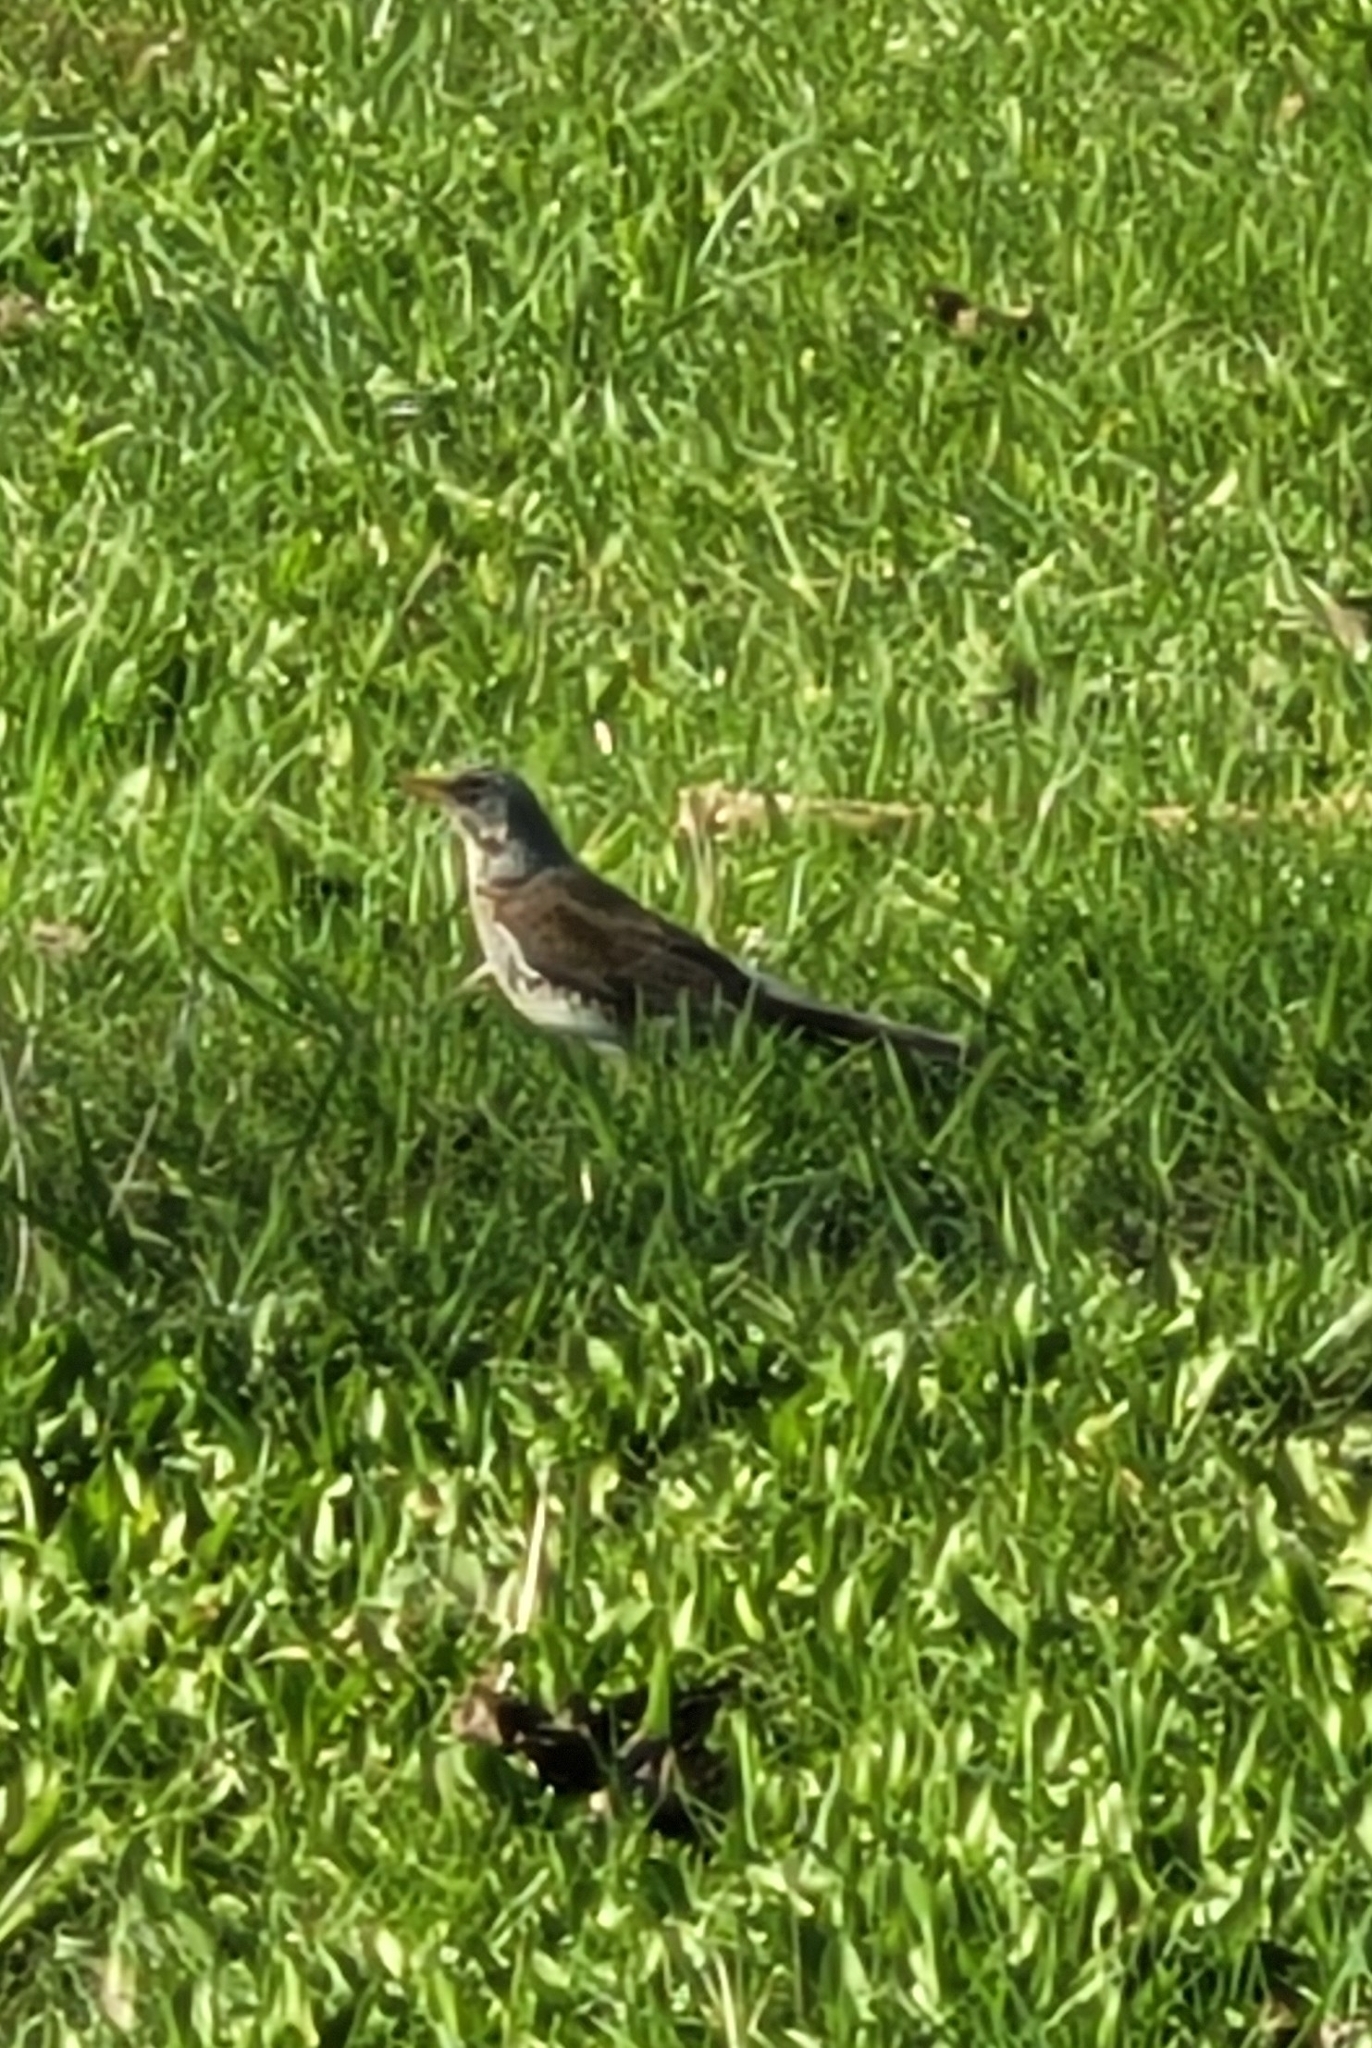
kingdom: Animalia
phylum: Chordata
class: Aves
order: Passeriformes
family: Turdidae
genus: Turdus
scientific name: Turdus pilaris
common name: Fieldfare
